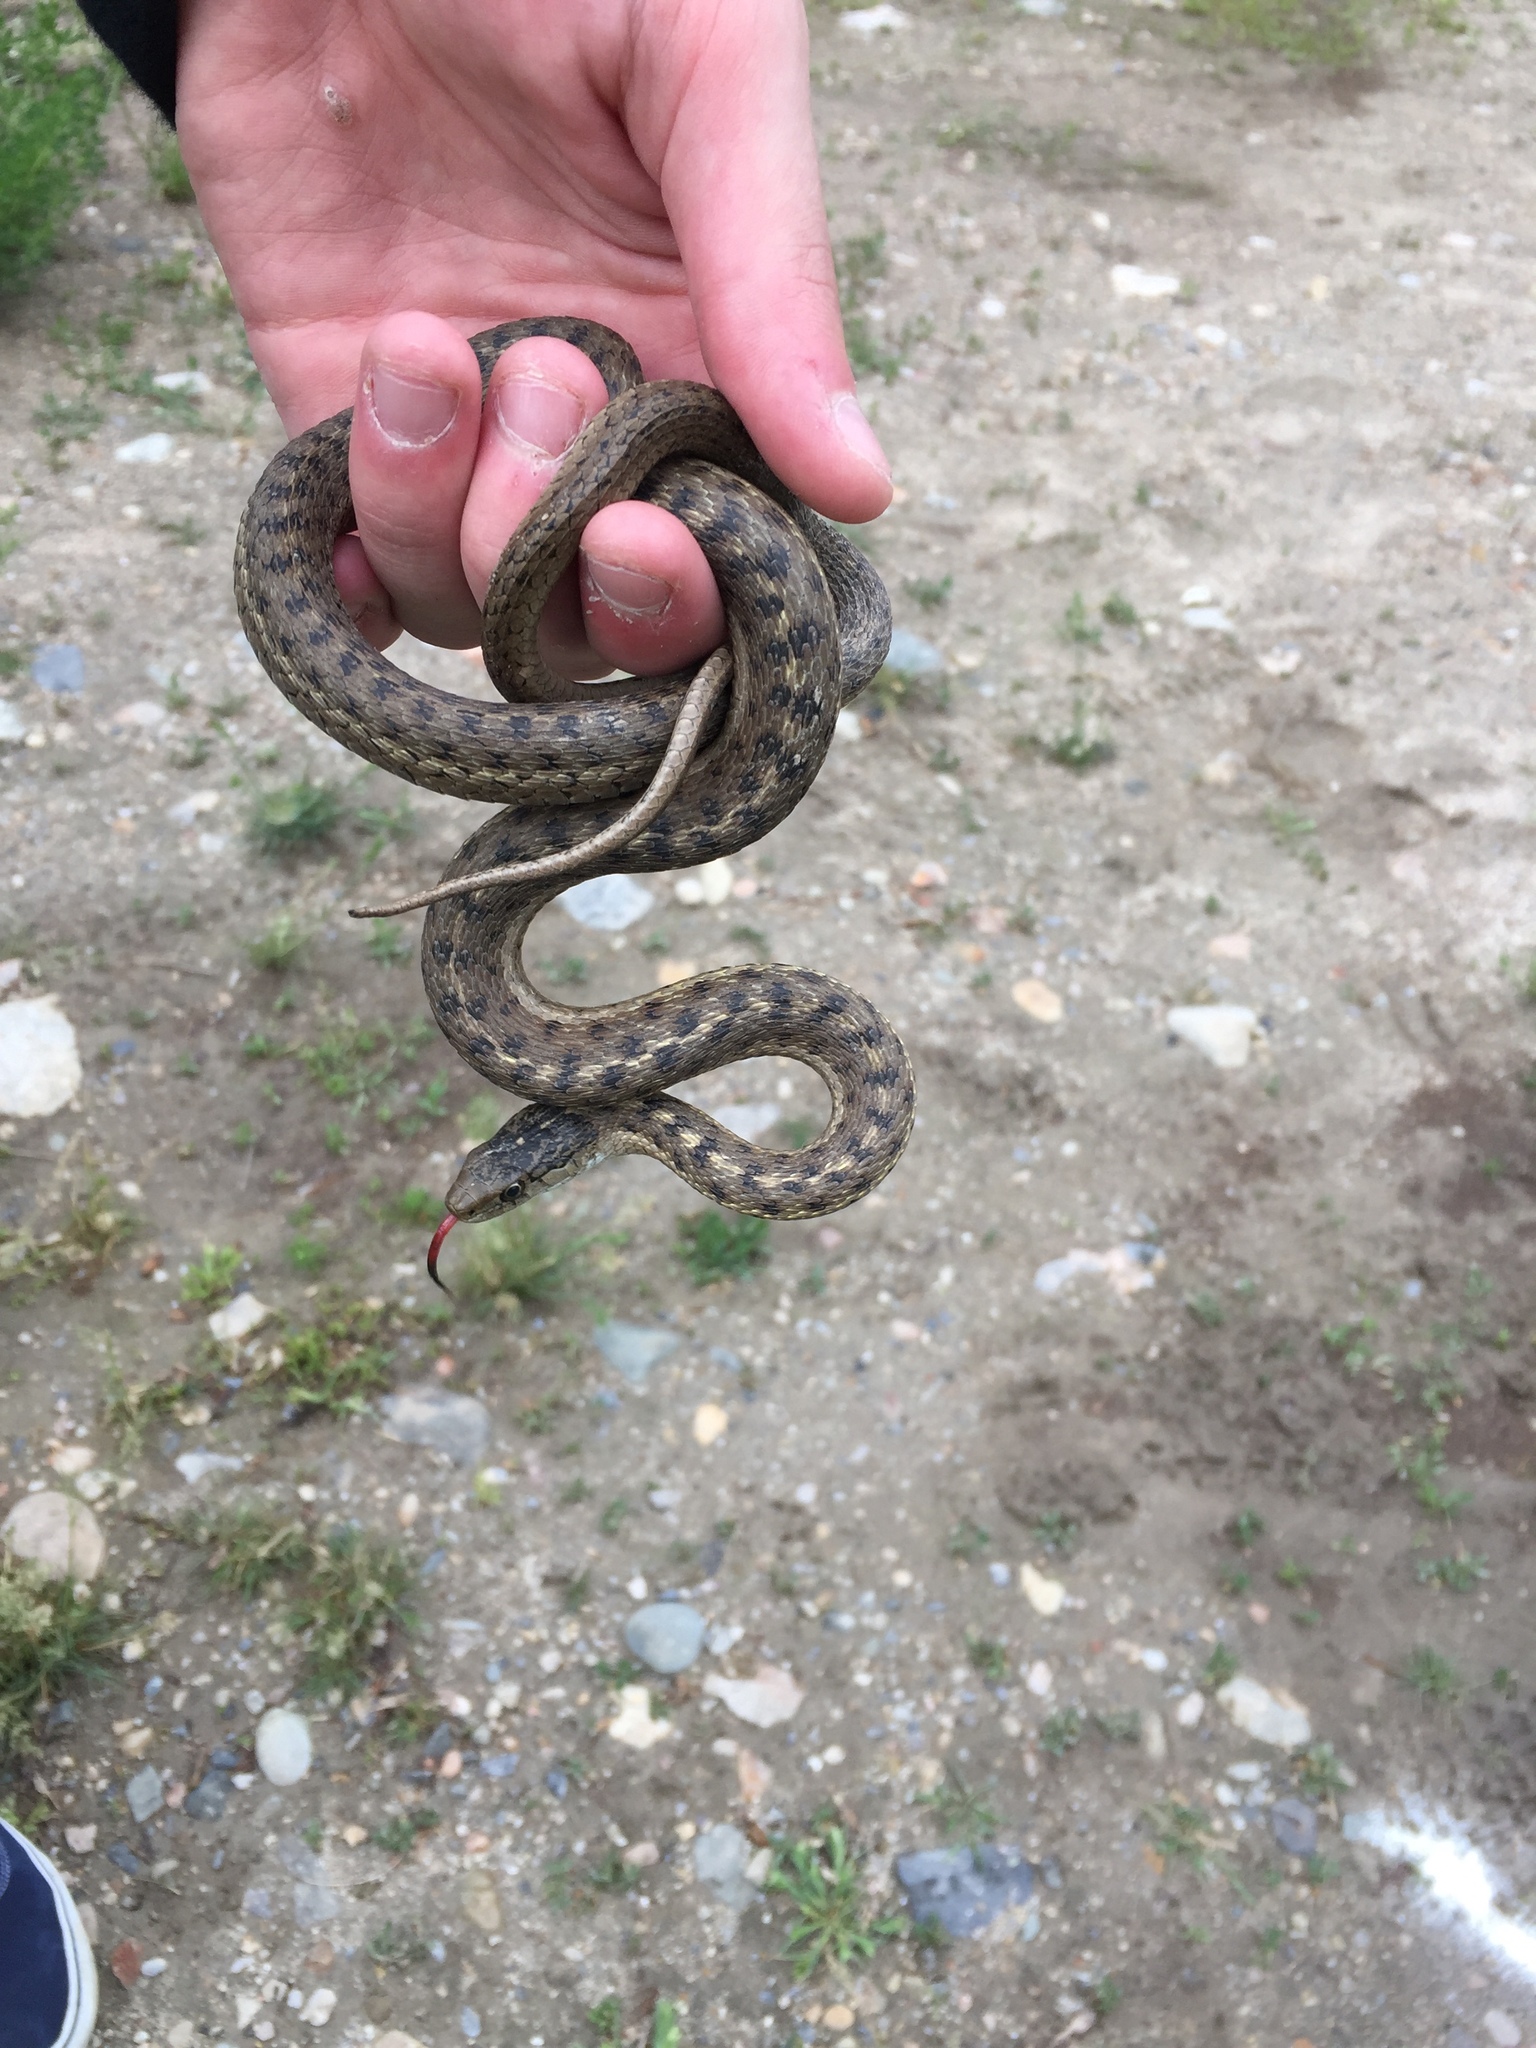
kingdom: Animalia
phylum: Chordata
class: Squamata
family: Colubridae
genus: Thamnophis
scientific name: Thamnophis elegans
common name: Western terrestrial garter snake
